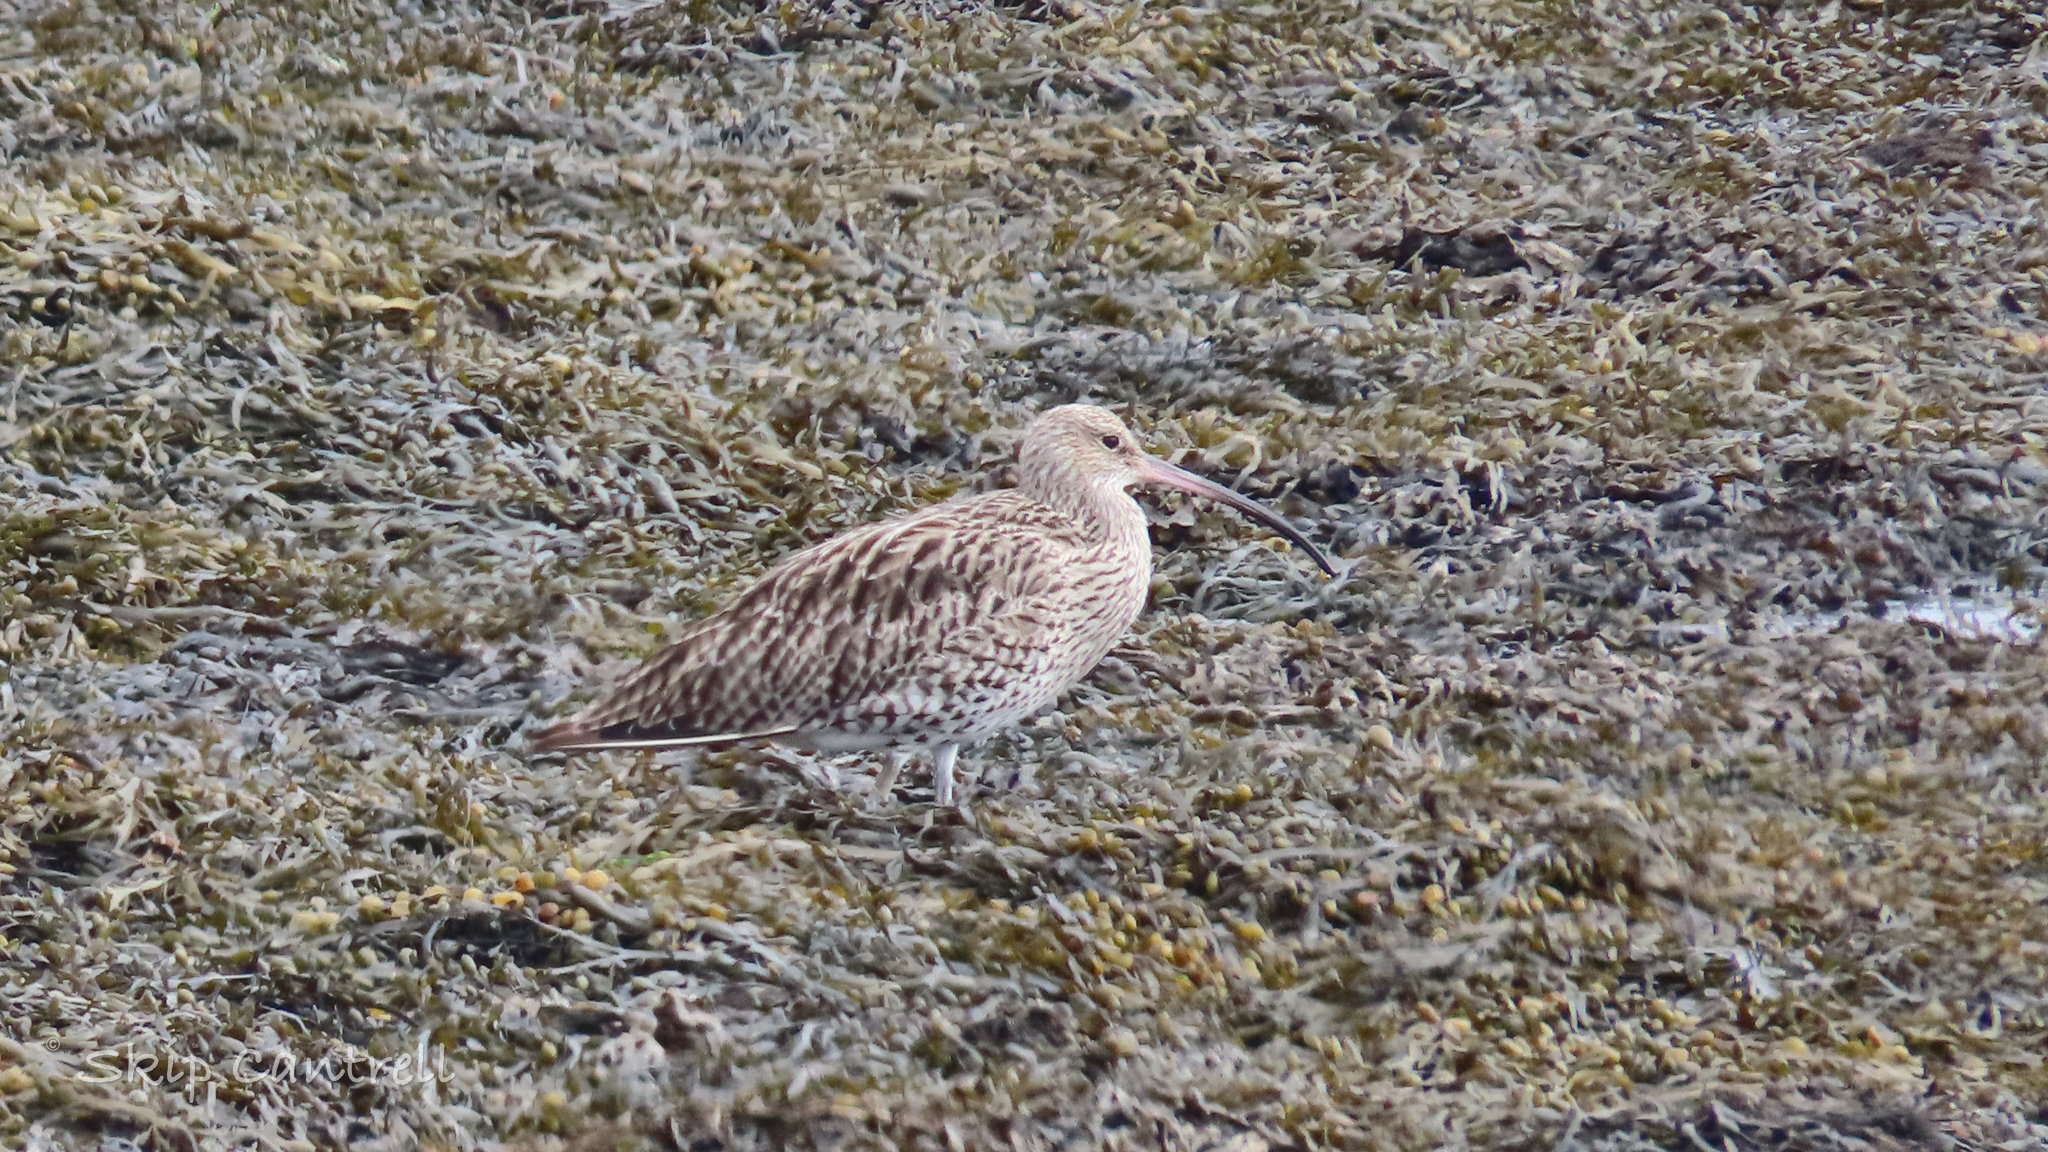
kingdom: Animalia
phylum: Chordata
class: Aves
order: Charadriiformes
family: Scolopacidae
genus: Numenius
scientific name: Numenius arquata
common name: Eurasian curlew
